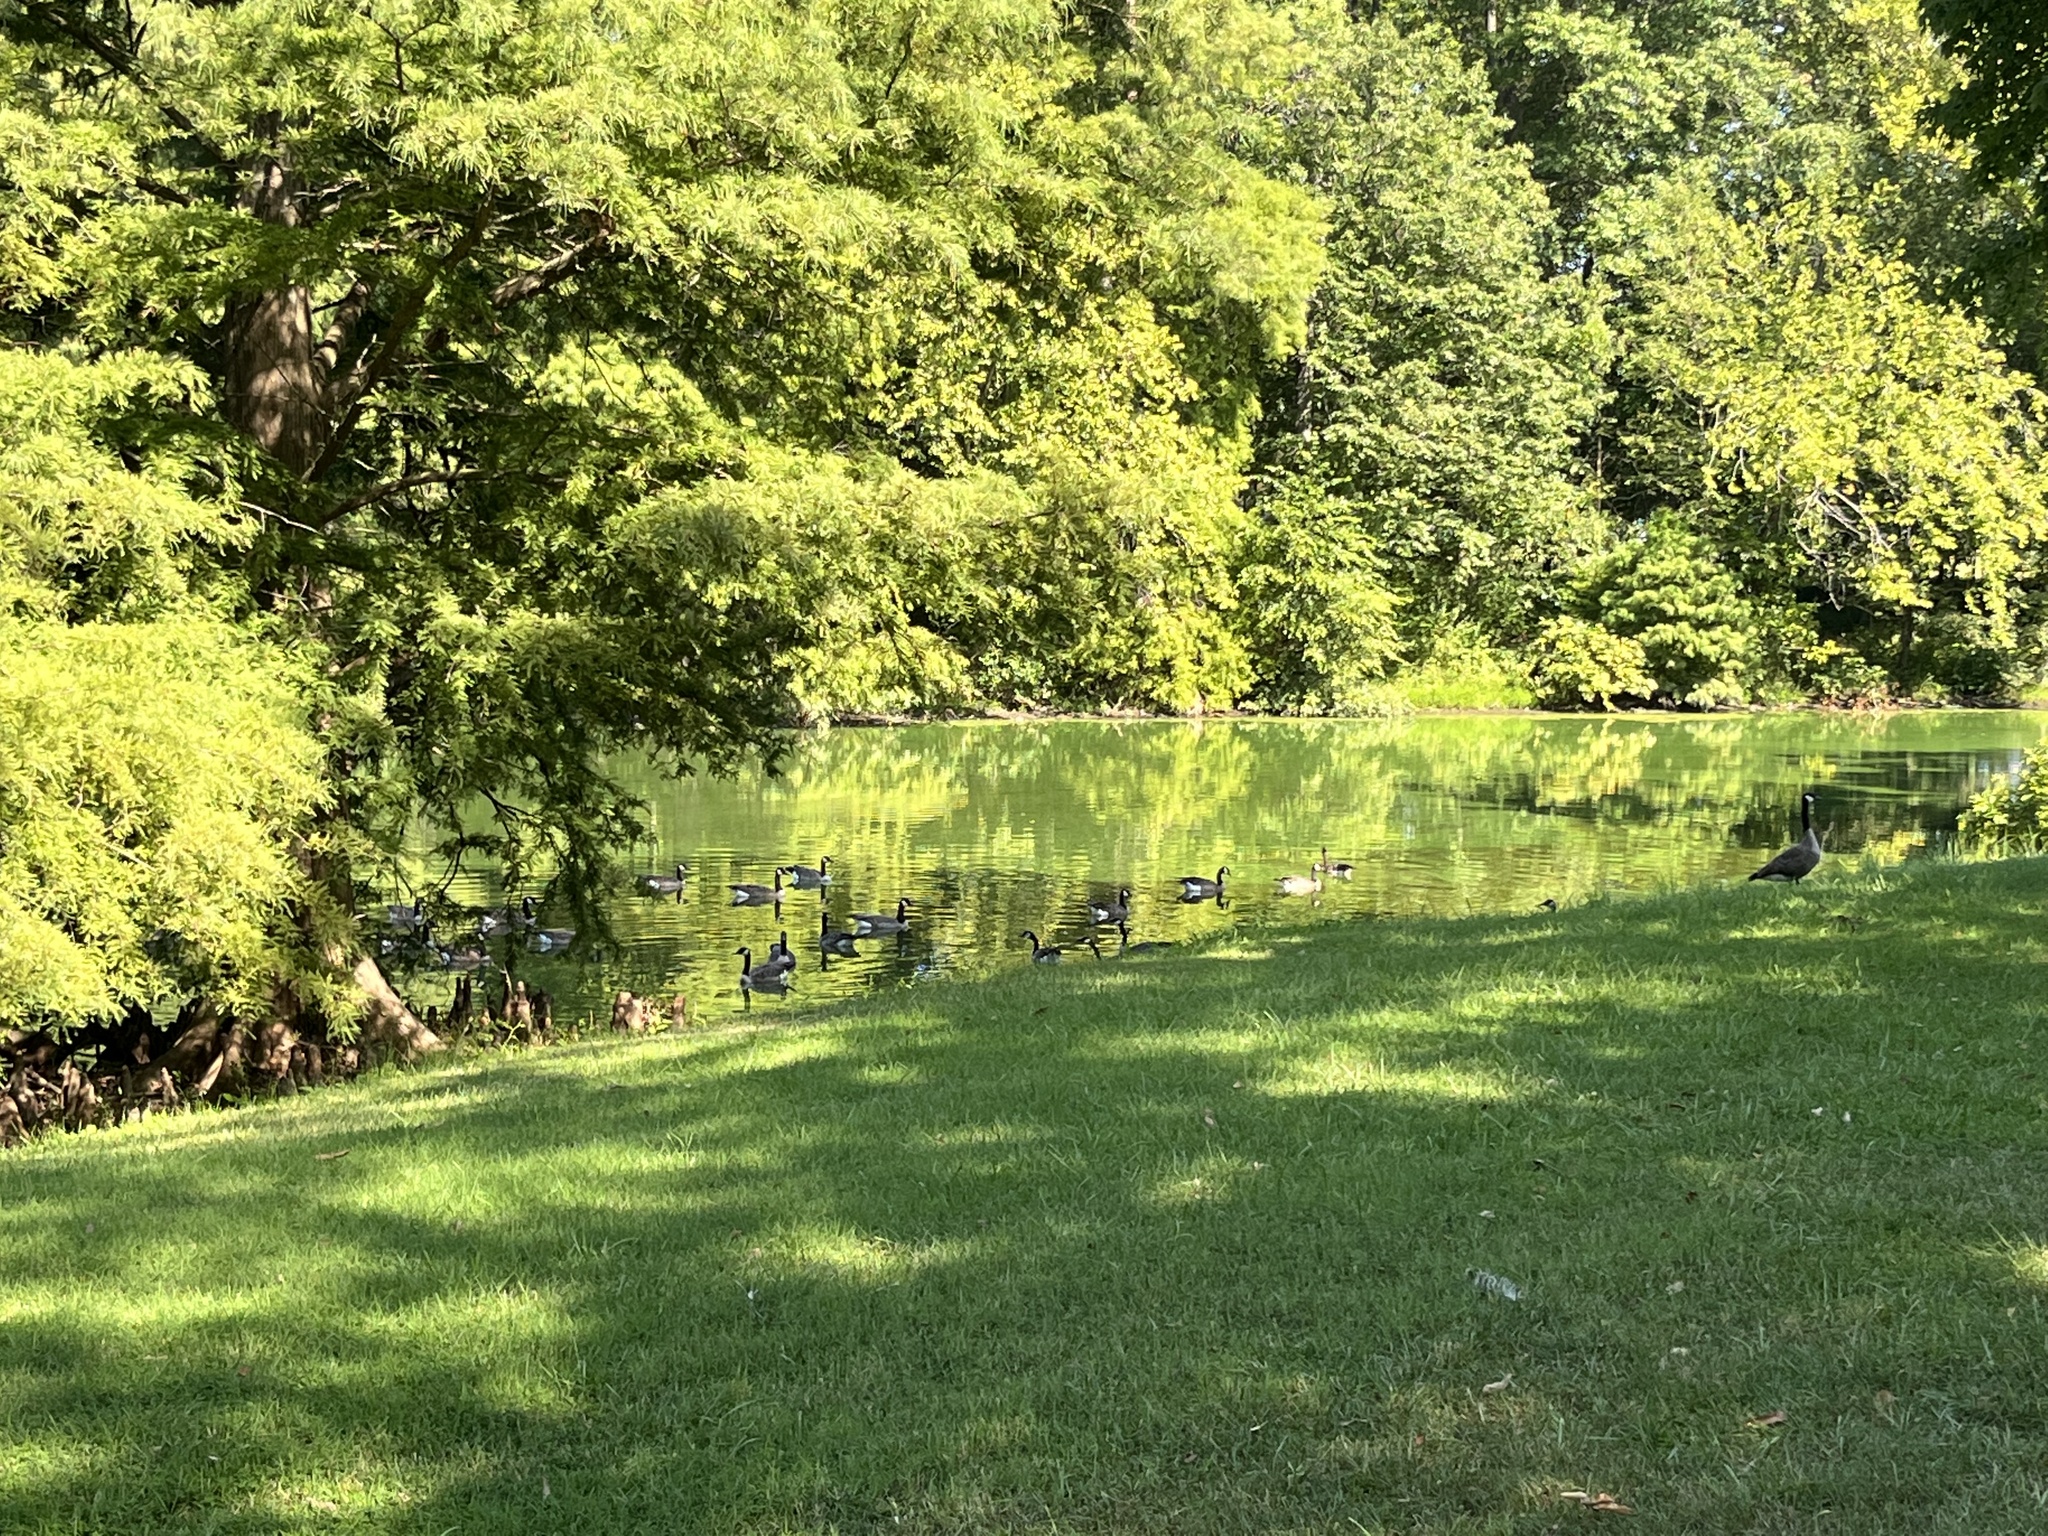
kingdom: Animalia
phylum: Chordata
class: Aves
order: Anseriformes
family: Anatidae
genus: Branta
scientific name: Branta canadensis
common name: Canada goose
